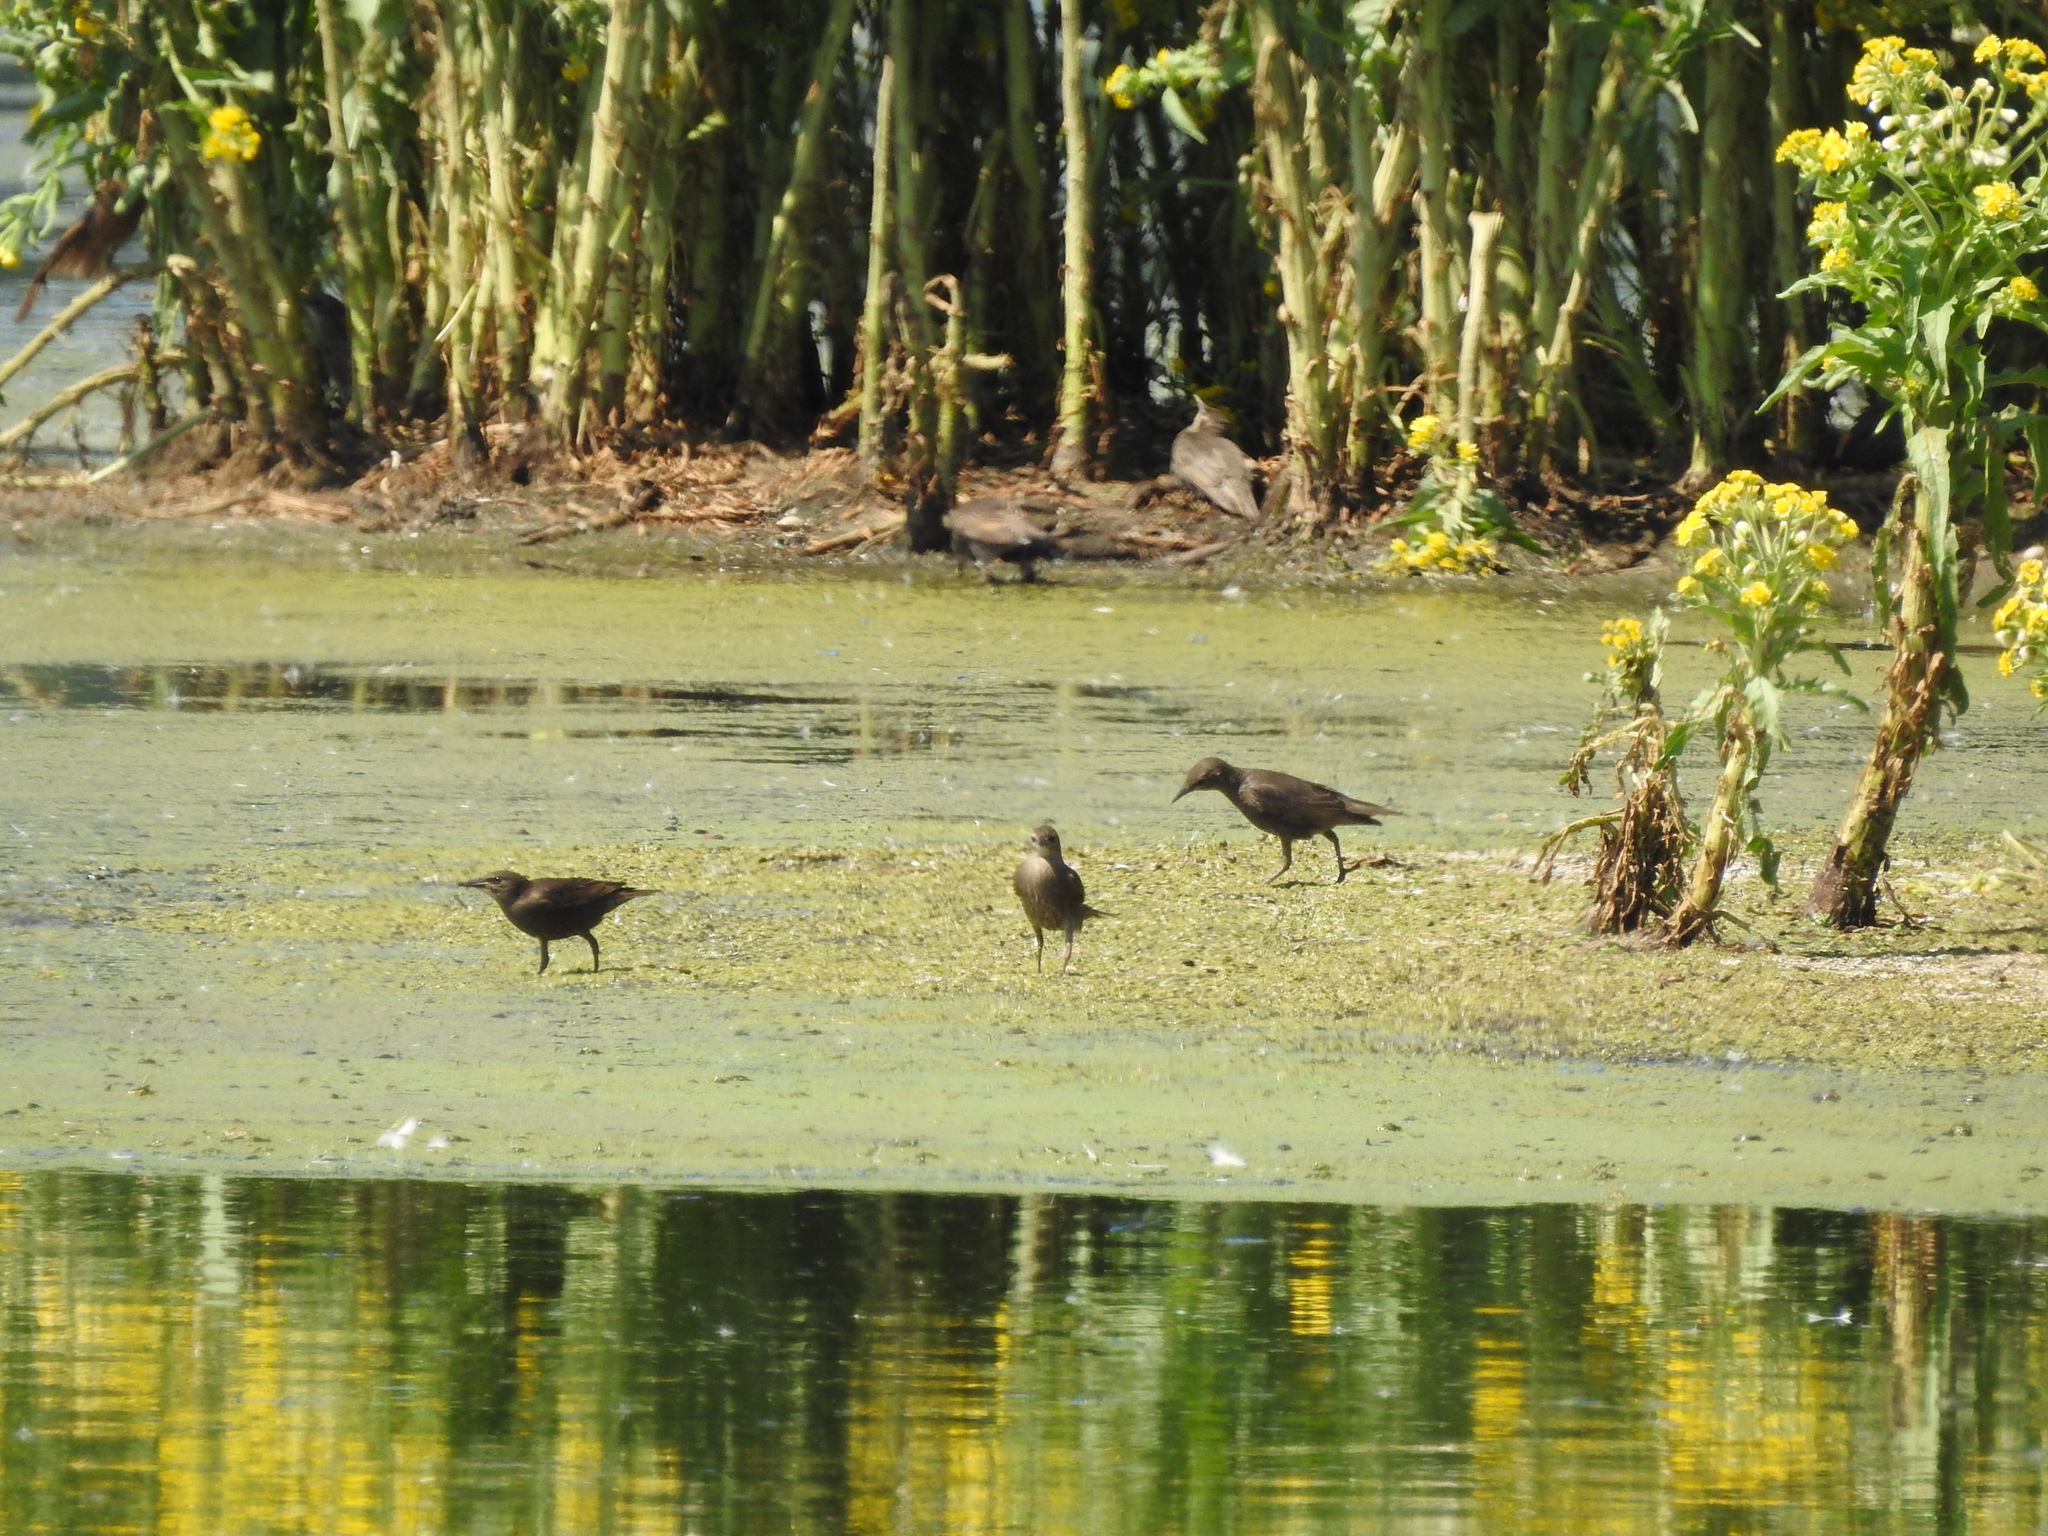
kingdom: Animalia
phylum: Chordata
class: Aves
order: Passeriformes
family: Sturnidae
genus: Sturnus
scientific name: Sturnus vulgaris
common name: Common starling
